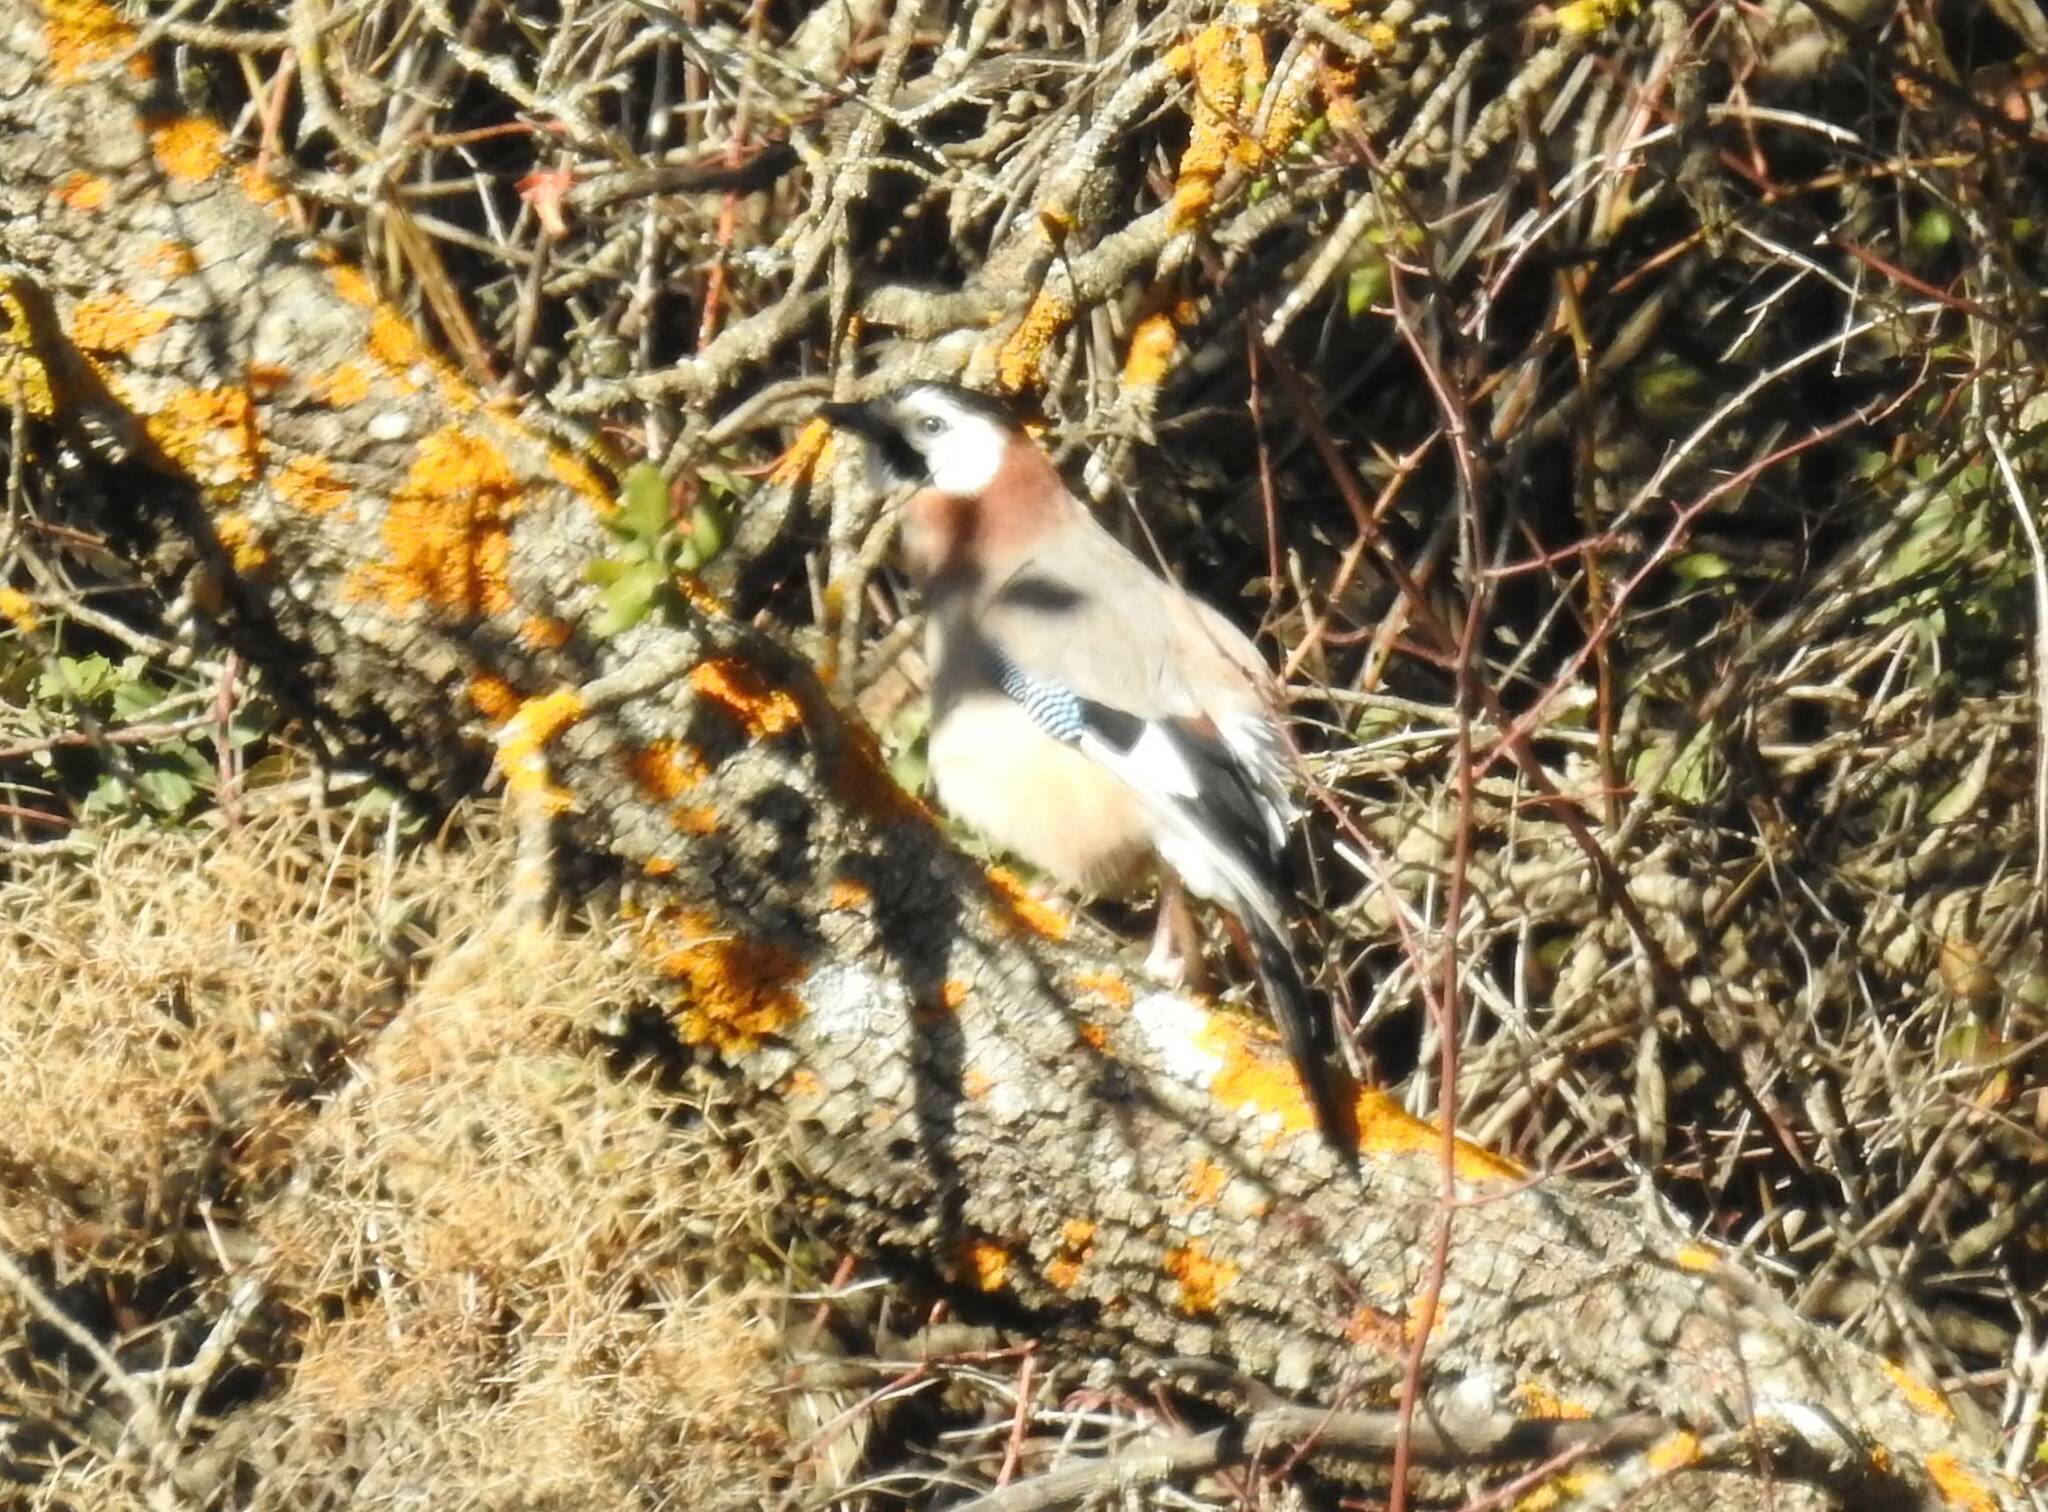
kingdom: Animalia
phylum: Chordata
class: Aves
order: Passeriformes
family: Corvidae
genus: Garrulus
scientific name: Garrulus glandarius
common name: Eurasian jay
